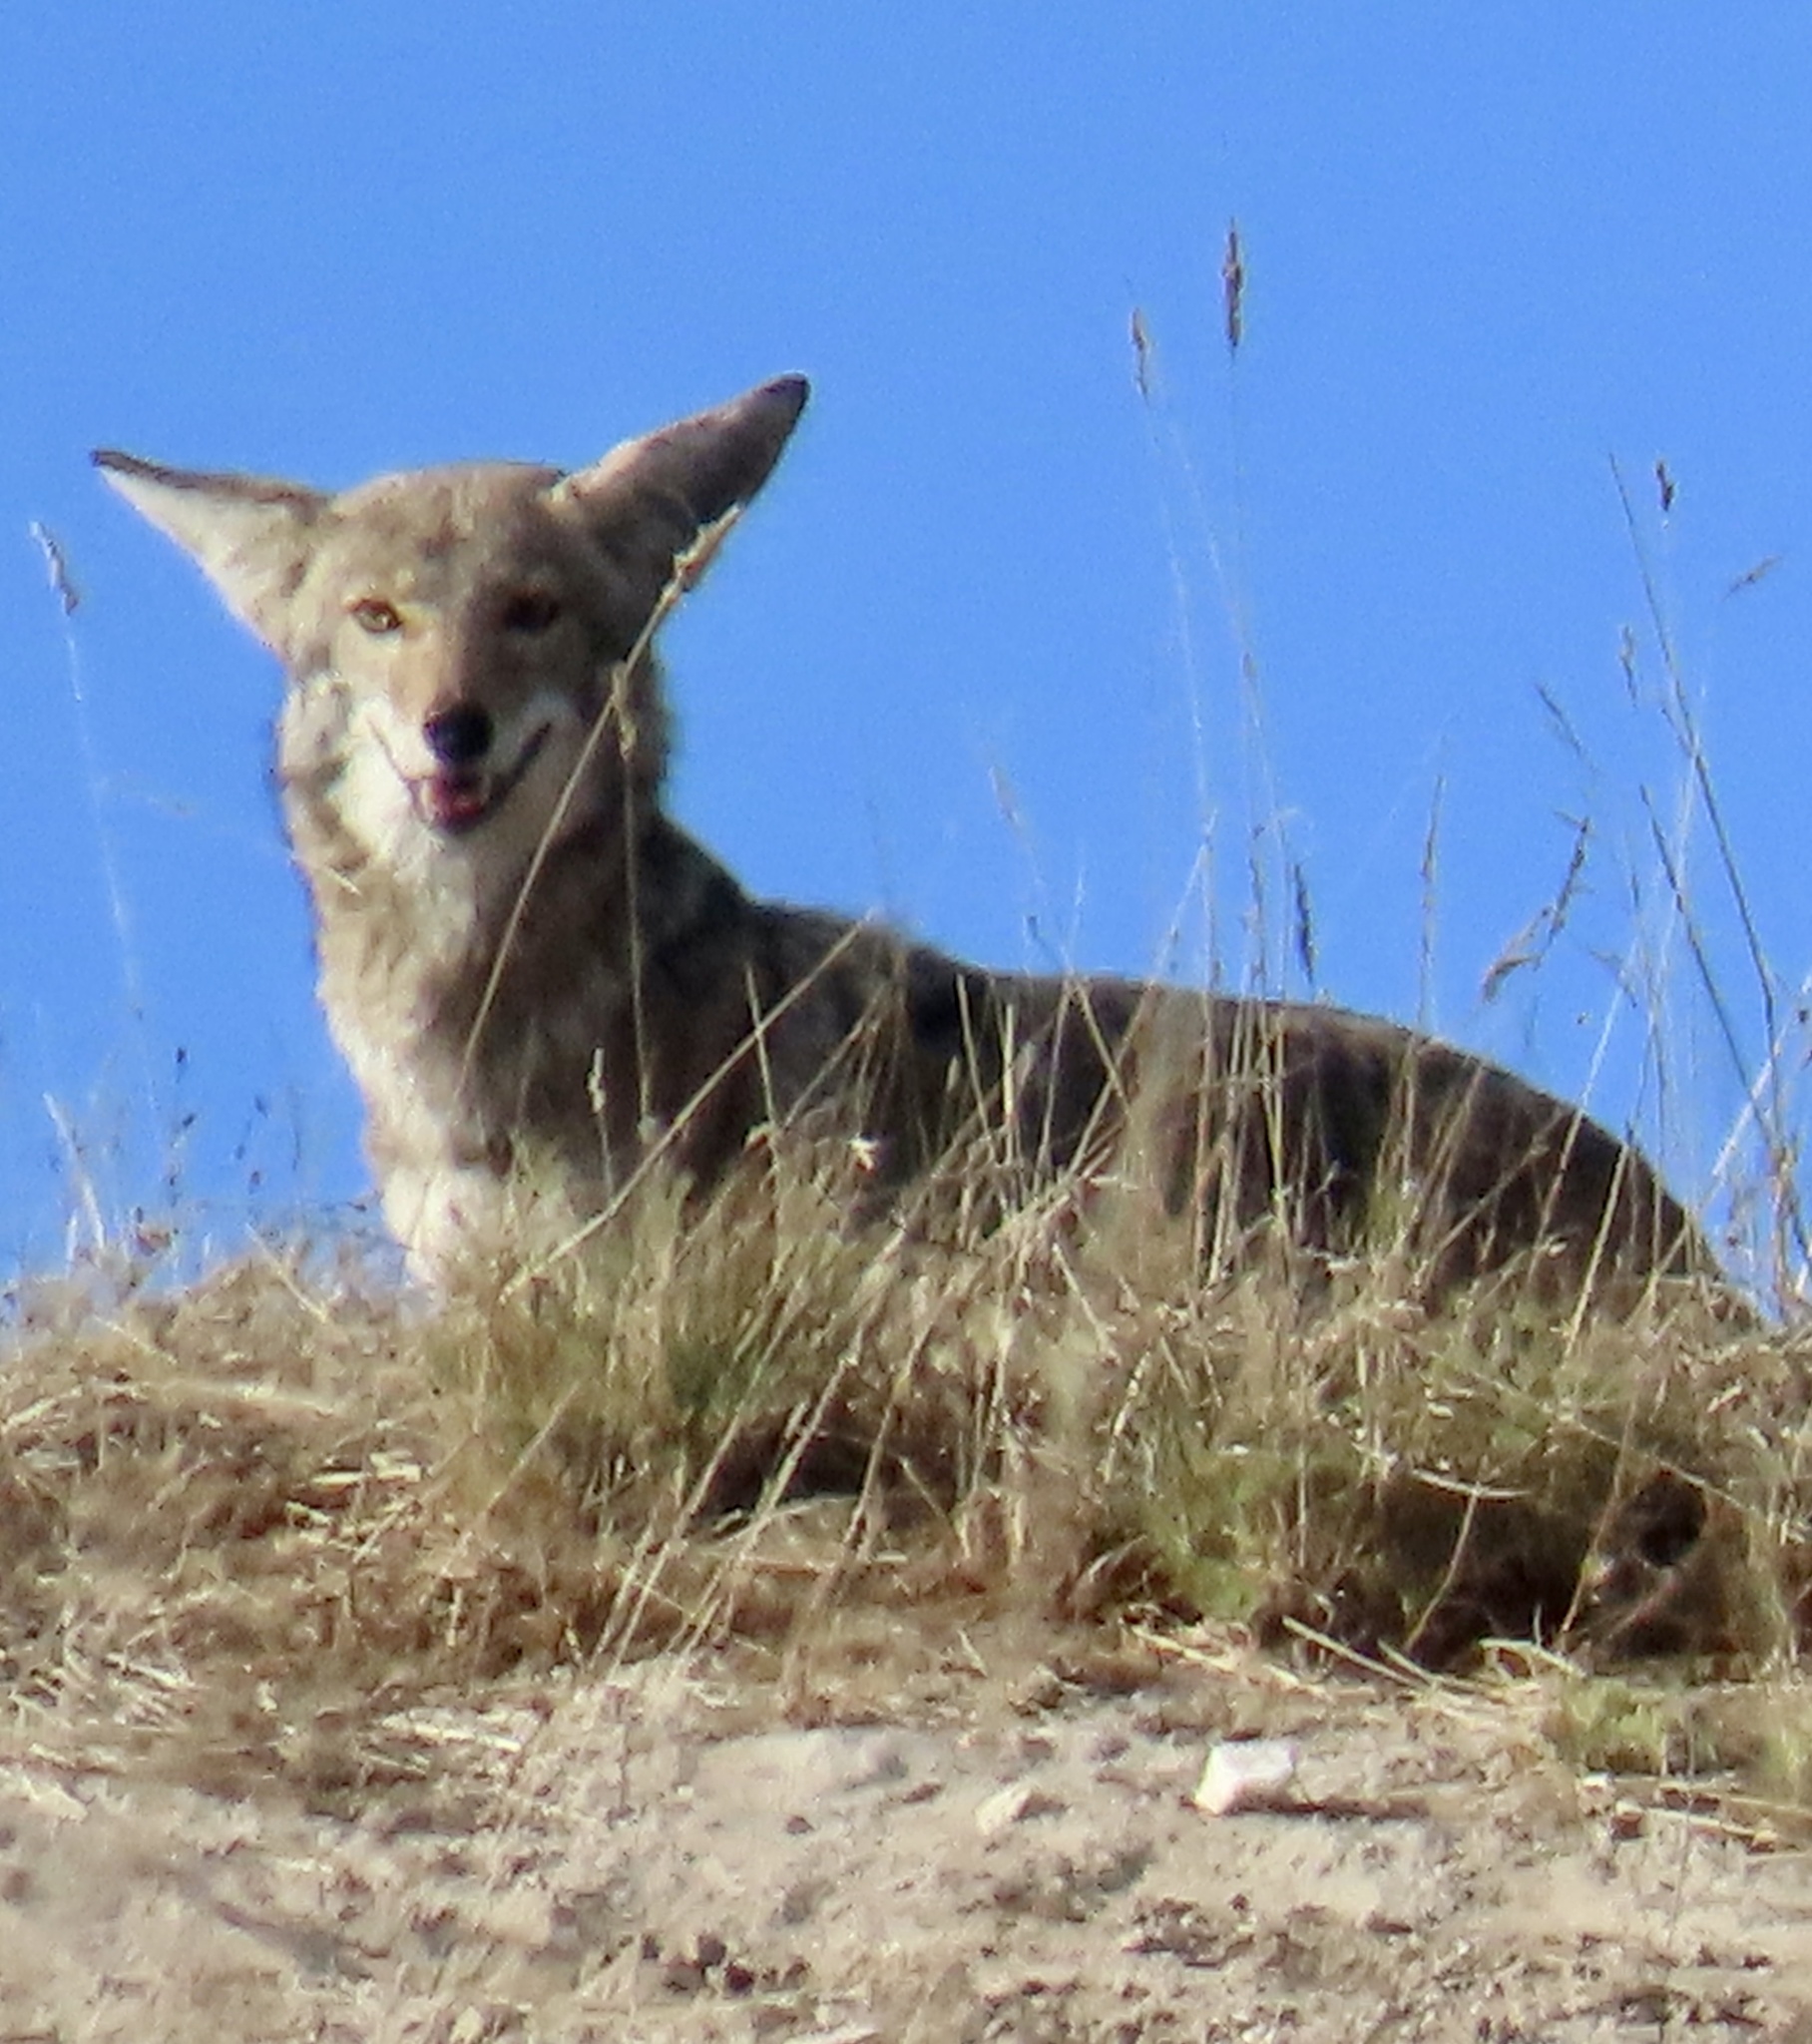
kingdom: Animalia
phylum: Chordata
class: Mammalia
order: Carnivora
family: Canidae
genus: Canis
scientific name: Canis latrans
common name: Coyote
